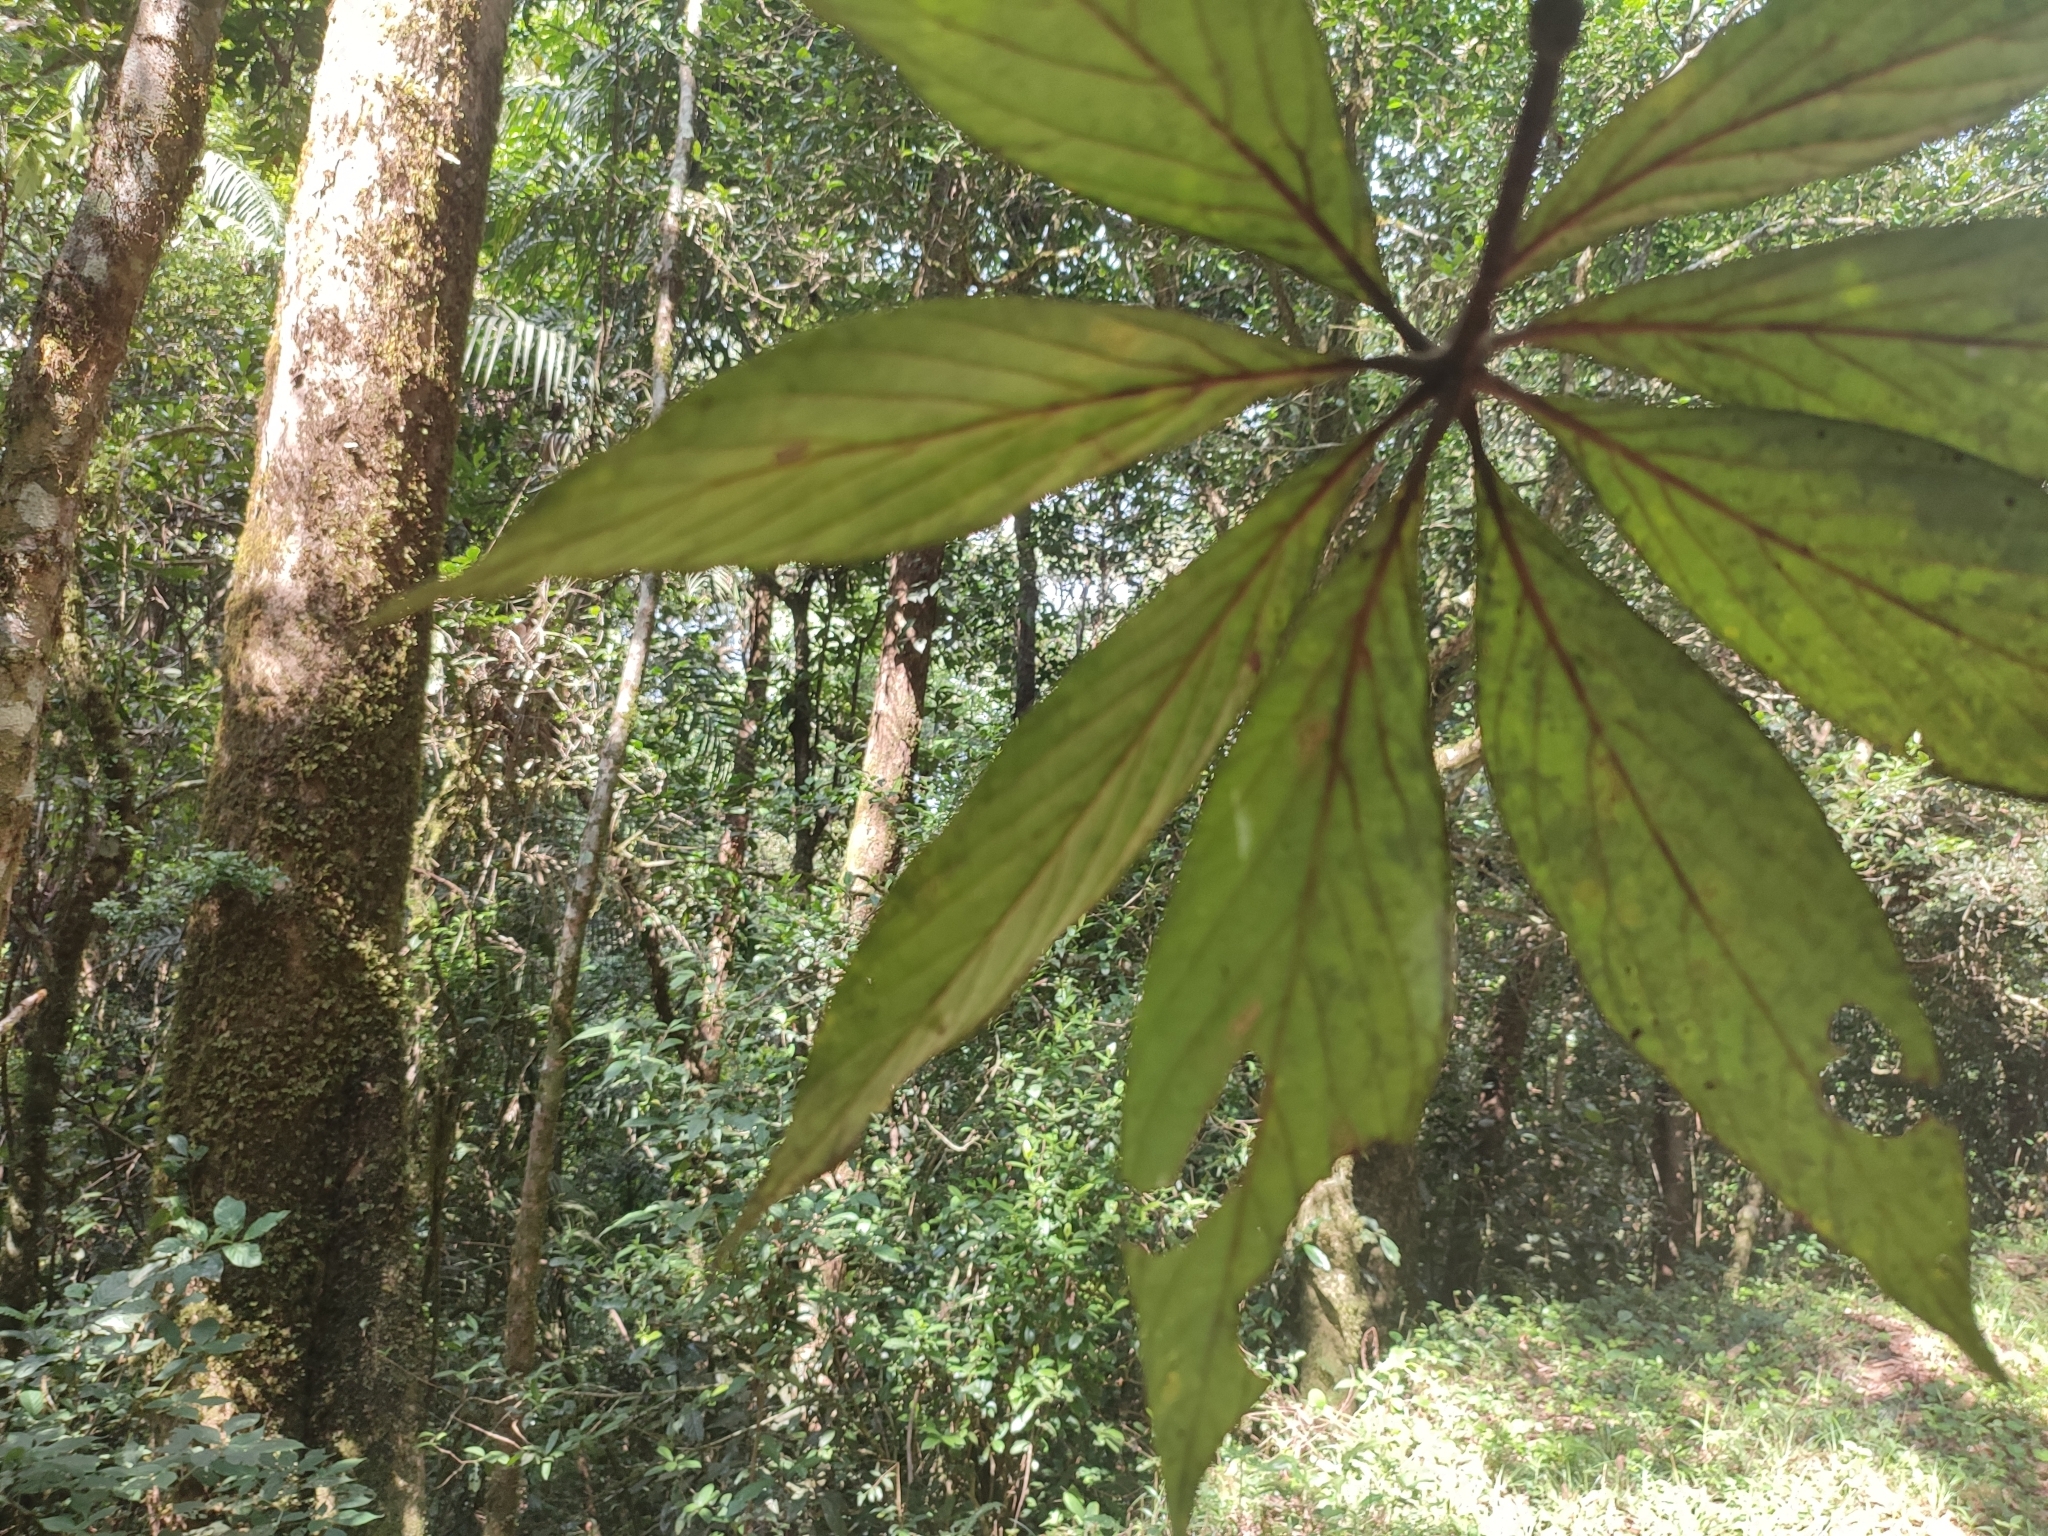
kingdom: Plantae
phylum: Tracheophyta
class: Magnoliopsida
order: Laurales
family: Lauraceae
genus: Actinodaphne
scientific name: Actinodaphne bourdillonii
